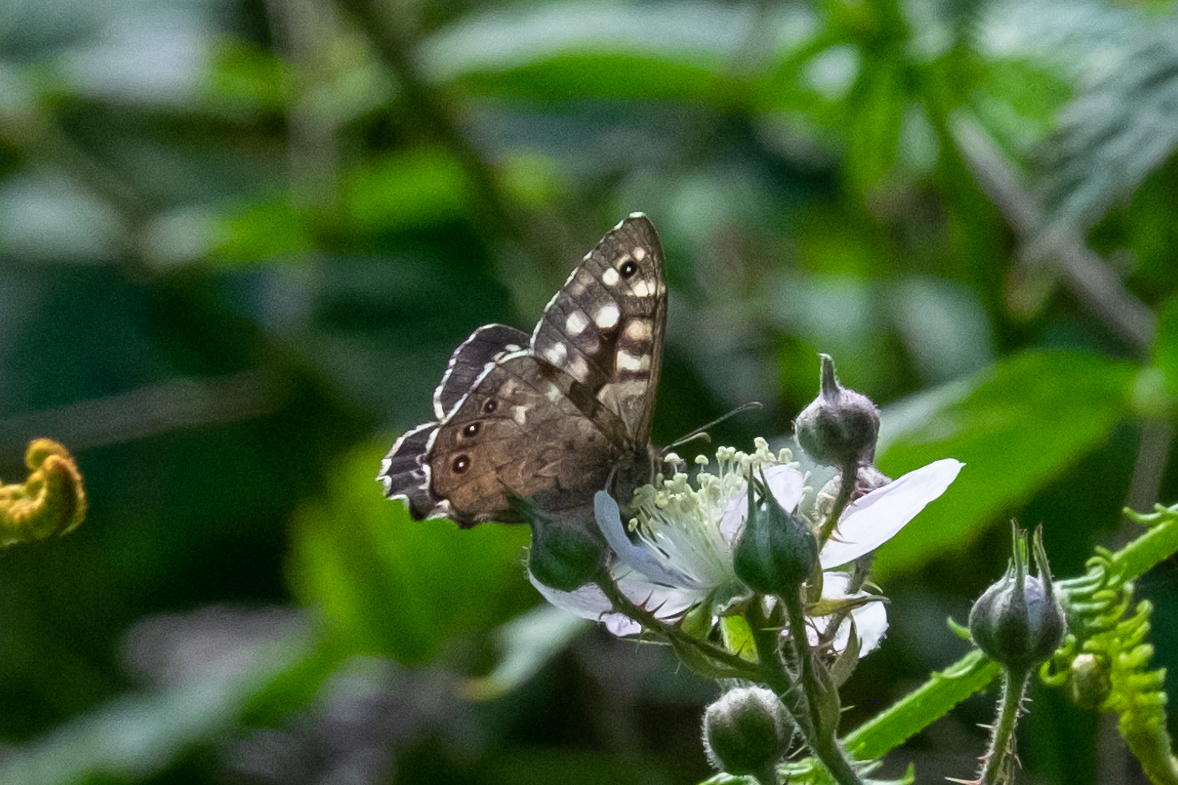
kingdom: Animalia
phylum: Arthropoda
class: Insecta
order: Lepidoptera
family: Nymphalidae
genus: Pararge
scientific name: Pararge aegeria
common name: Speckled wood
